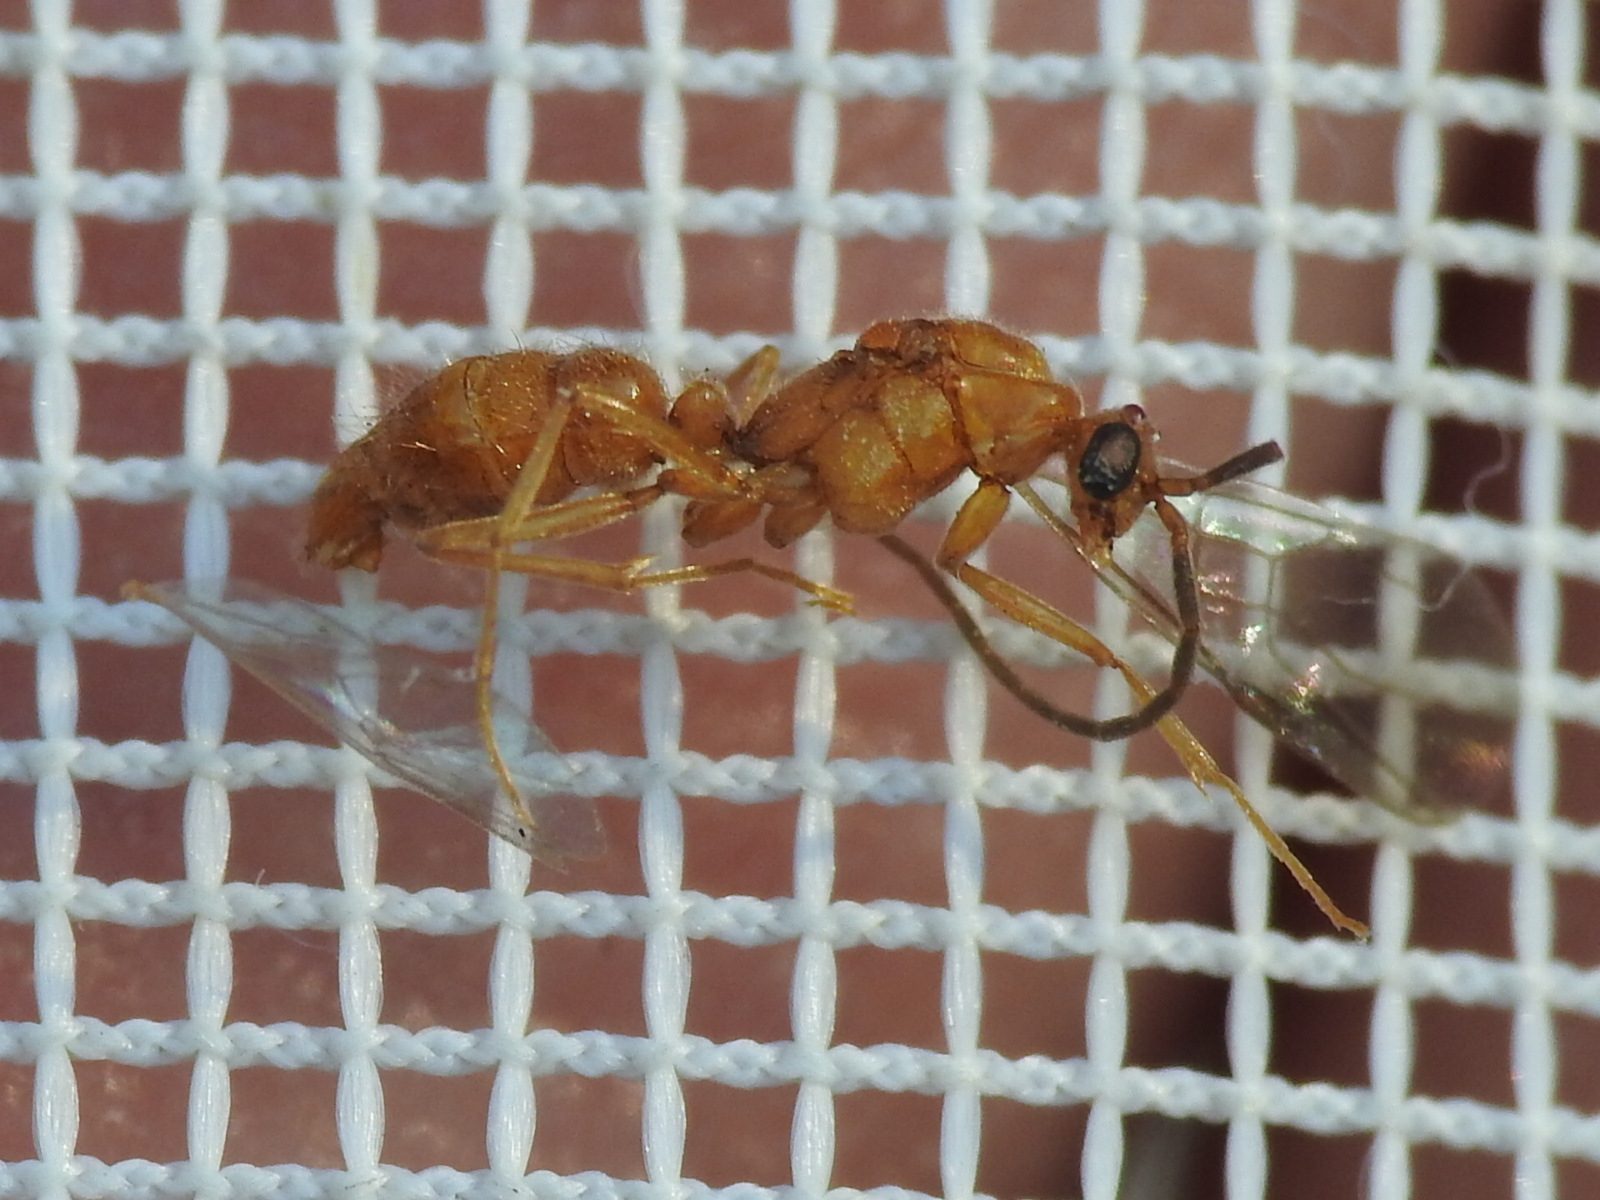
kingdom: Animalia
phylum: Arthropoda
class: Insecta
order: Hymenoptera
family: Formicidae
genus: Leptogenys
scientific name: Leptogenys elongata
